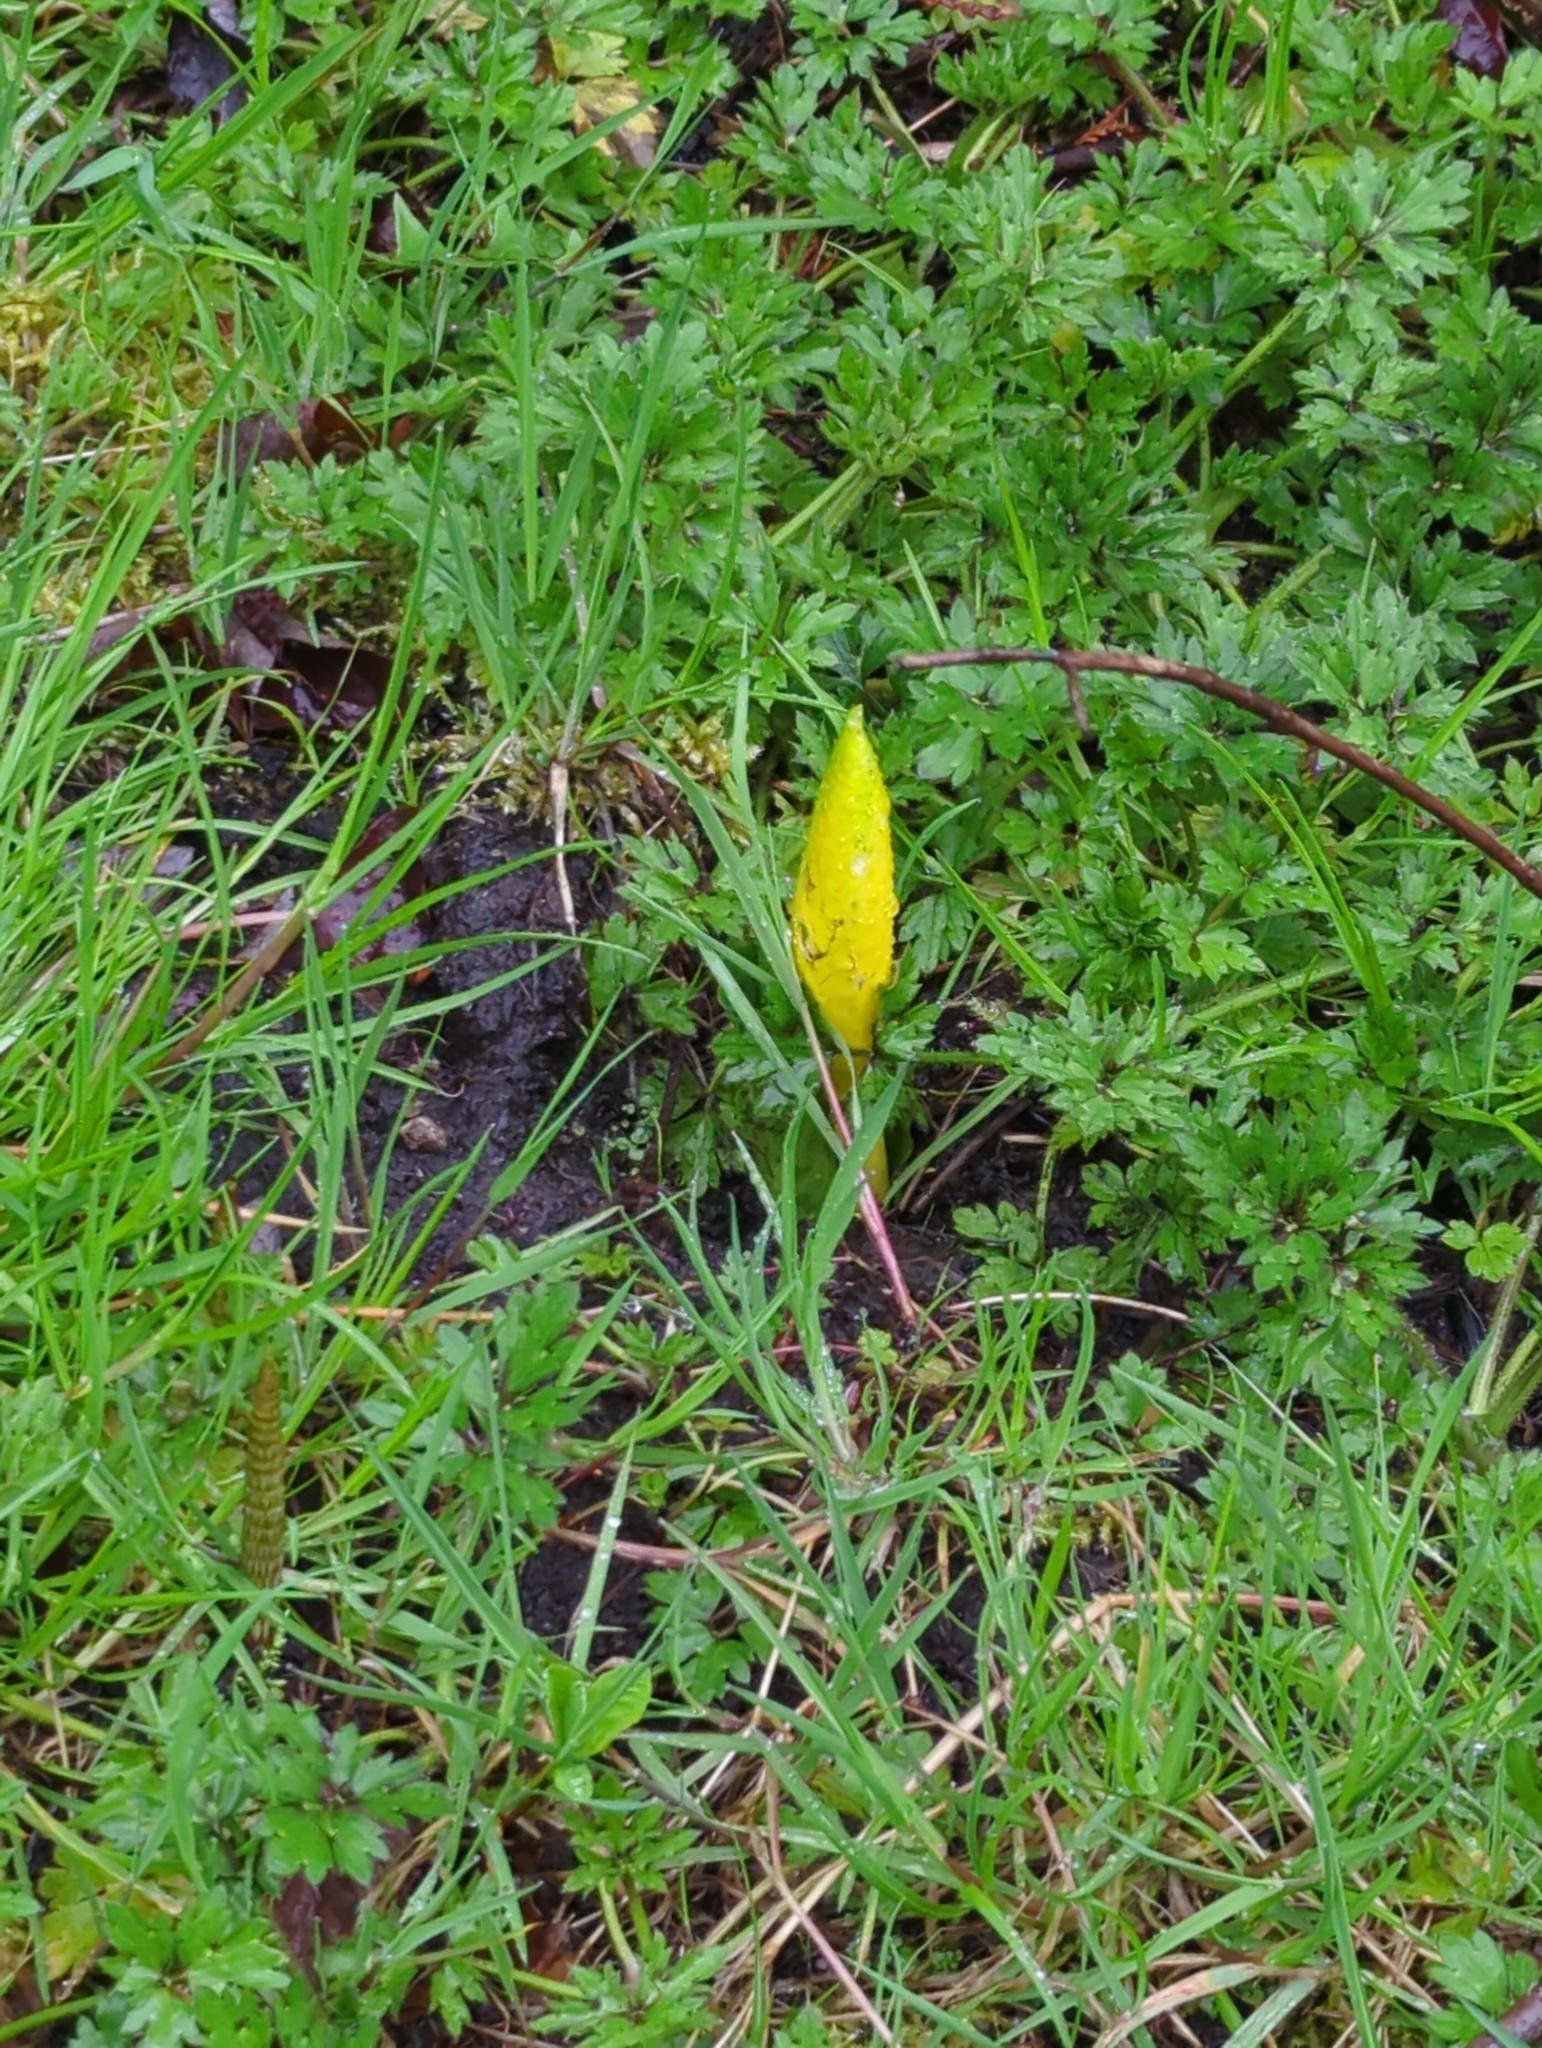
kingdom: Plantae
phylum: Tracheophyta
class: Liliopsida
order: Alismatales
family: Araceae
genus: Lysichiton
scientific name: Lysichiton americanus
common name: American skunk cabbage
